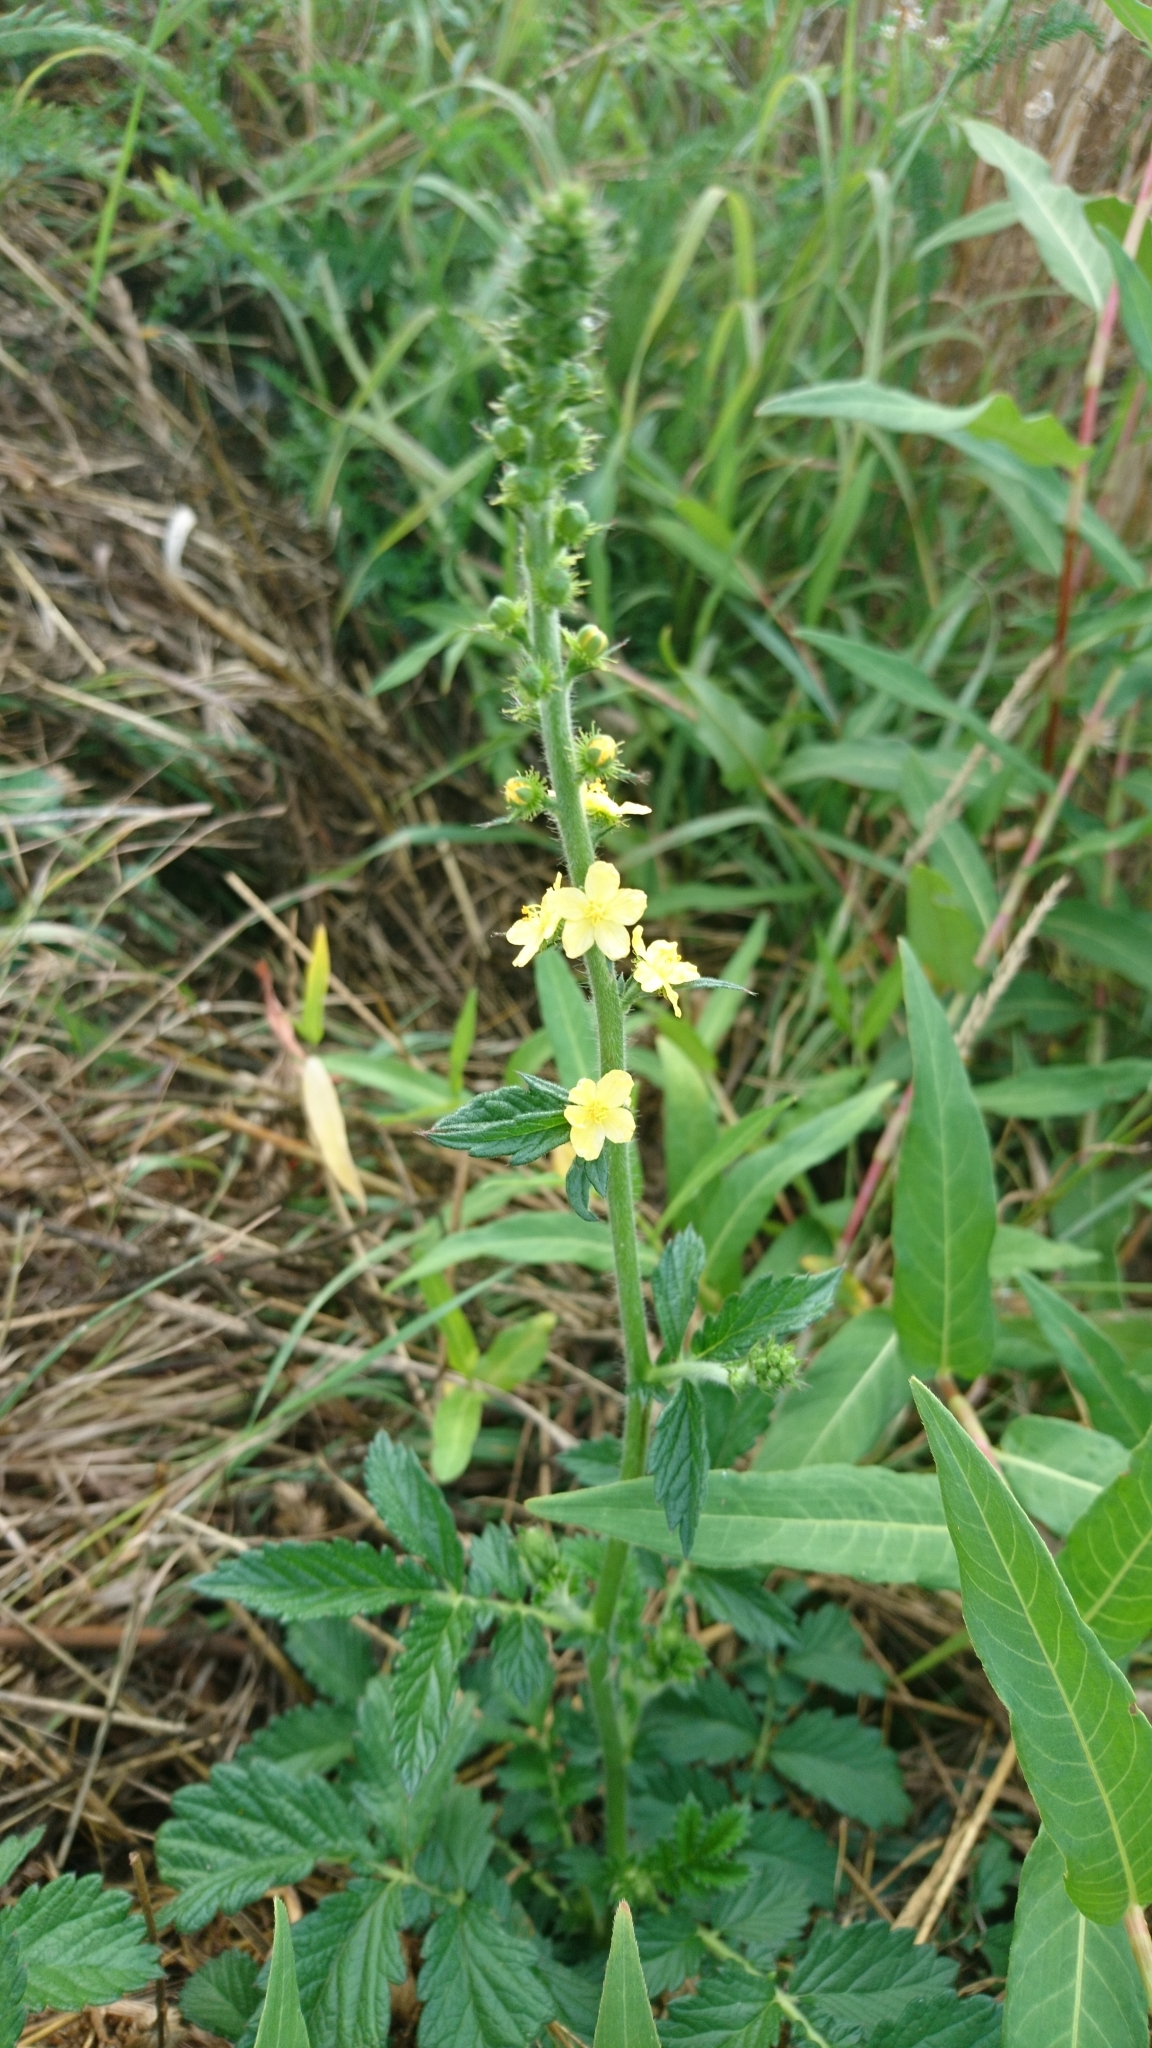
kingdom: Plantae
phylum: Tracheophyta
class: Magnoliopsida
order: Rosales
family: Rosaceae
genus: Agrimonia
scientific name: Agrimonia eupatoria
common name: Agrimony
